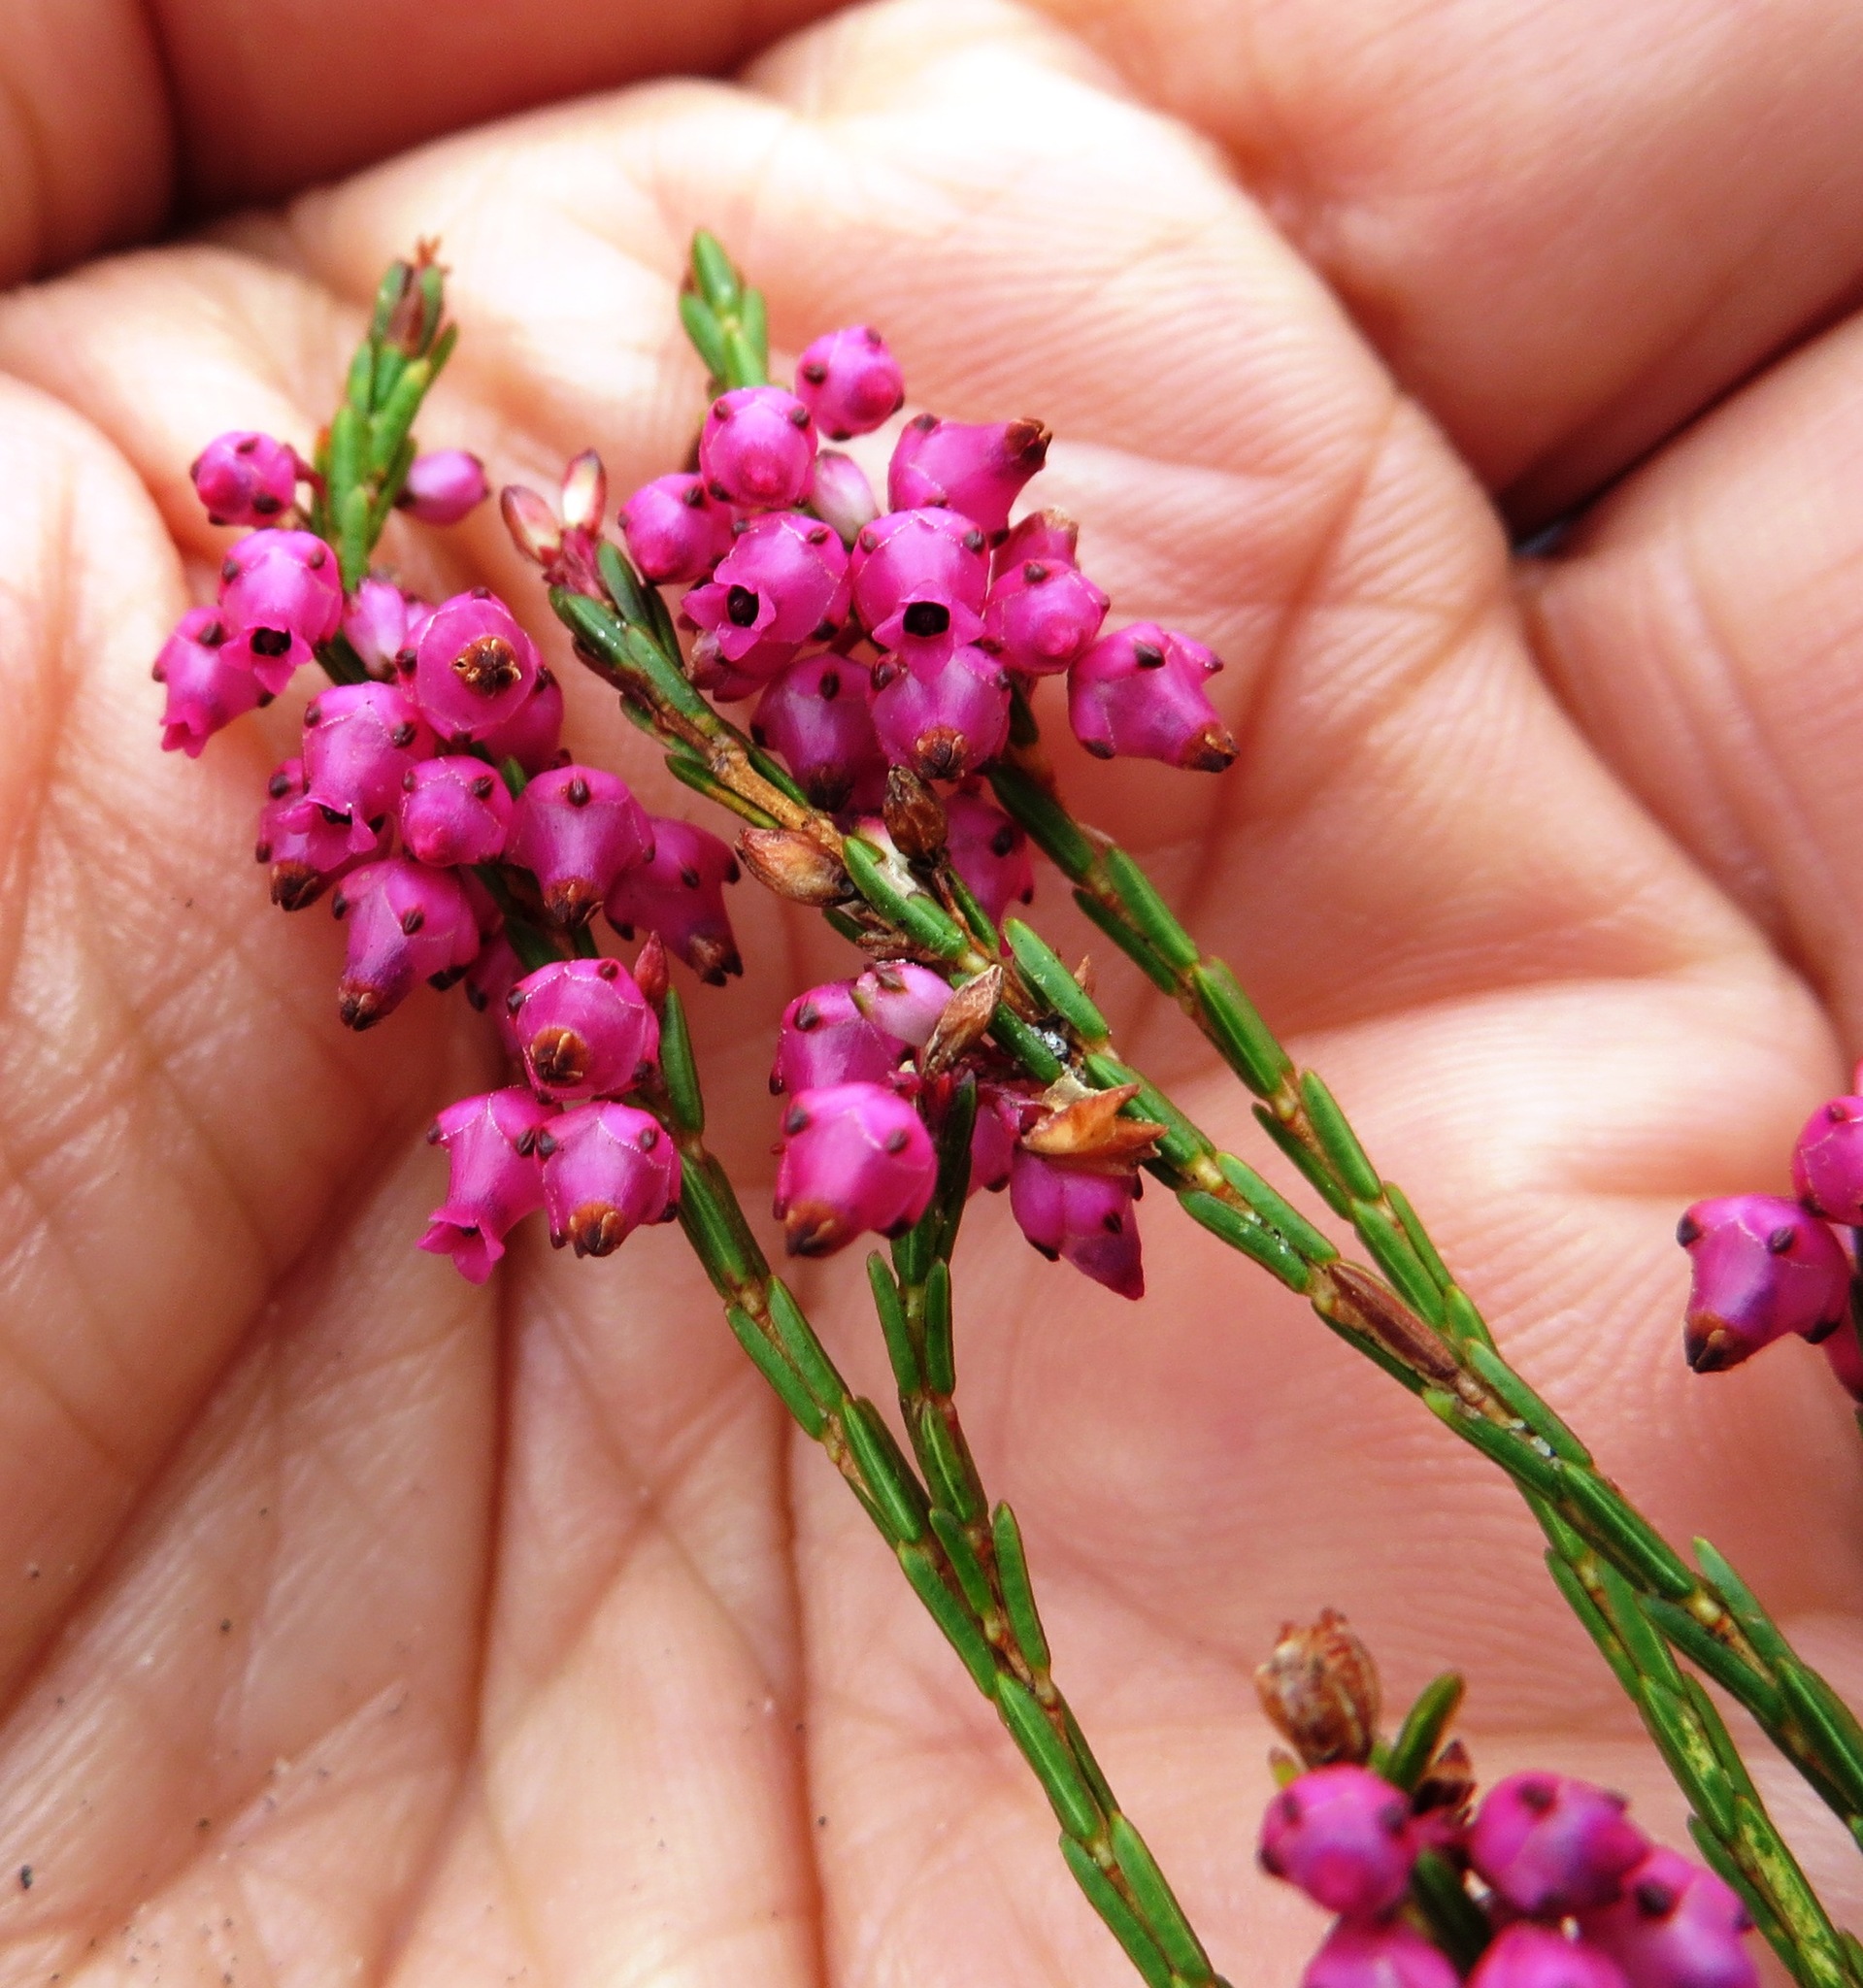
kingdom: Plantae
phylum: Tracheophyta
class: Magnoliopsida
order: Ericales
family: Ericaceae
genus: Erica
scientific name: Erica rhopalantha
